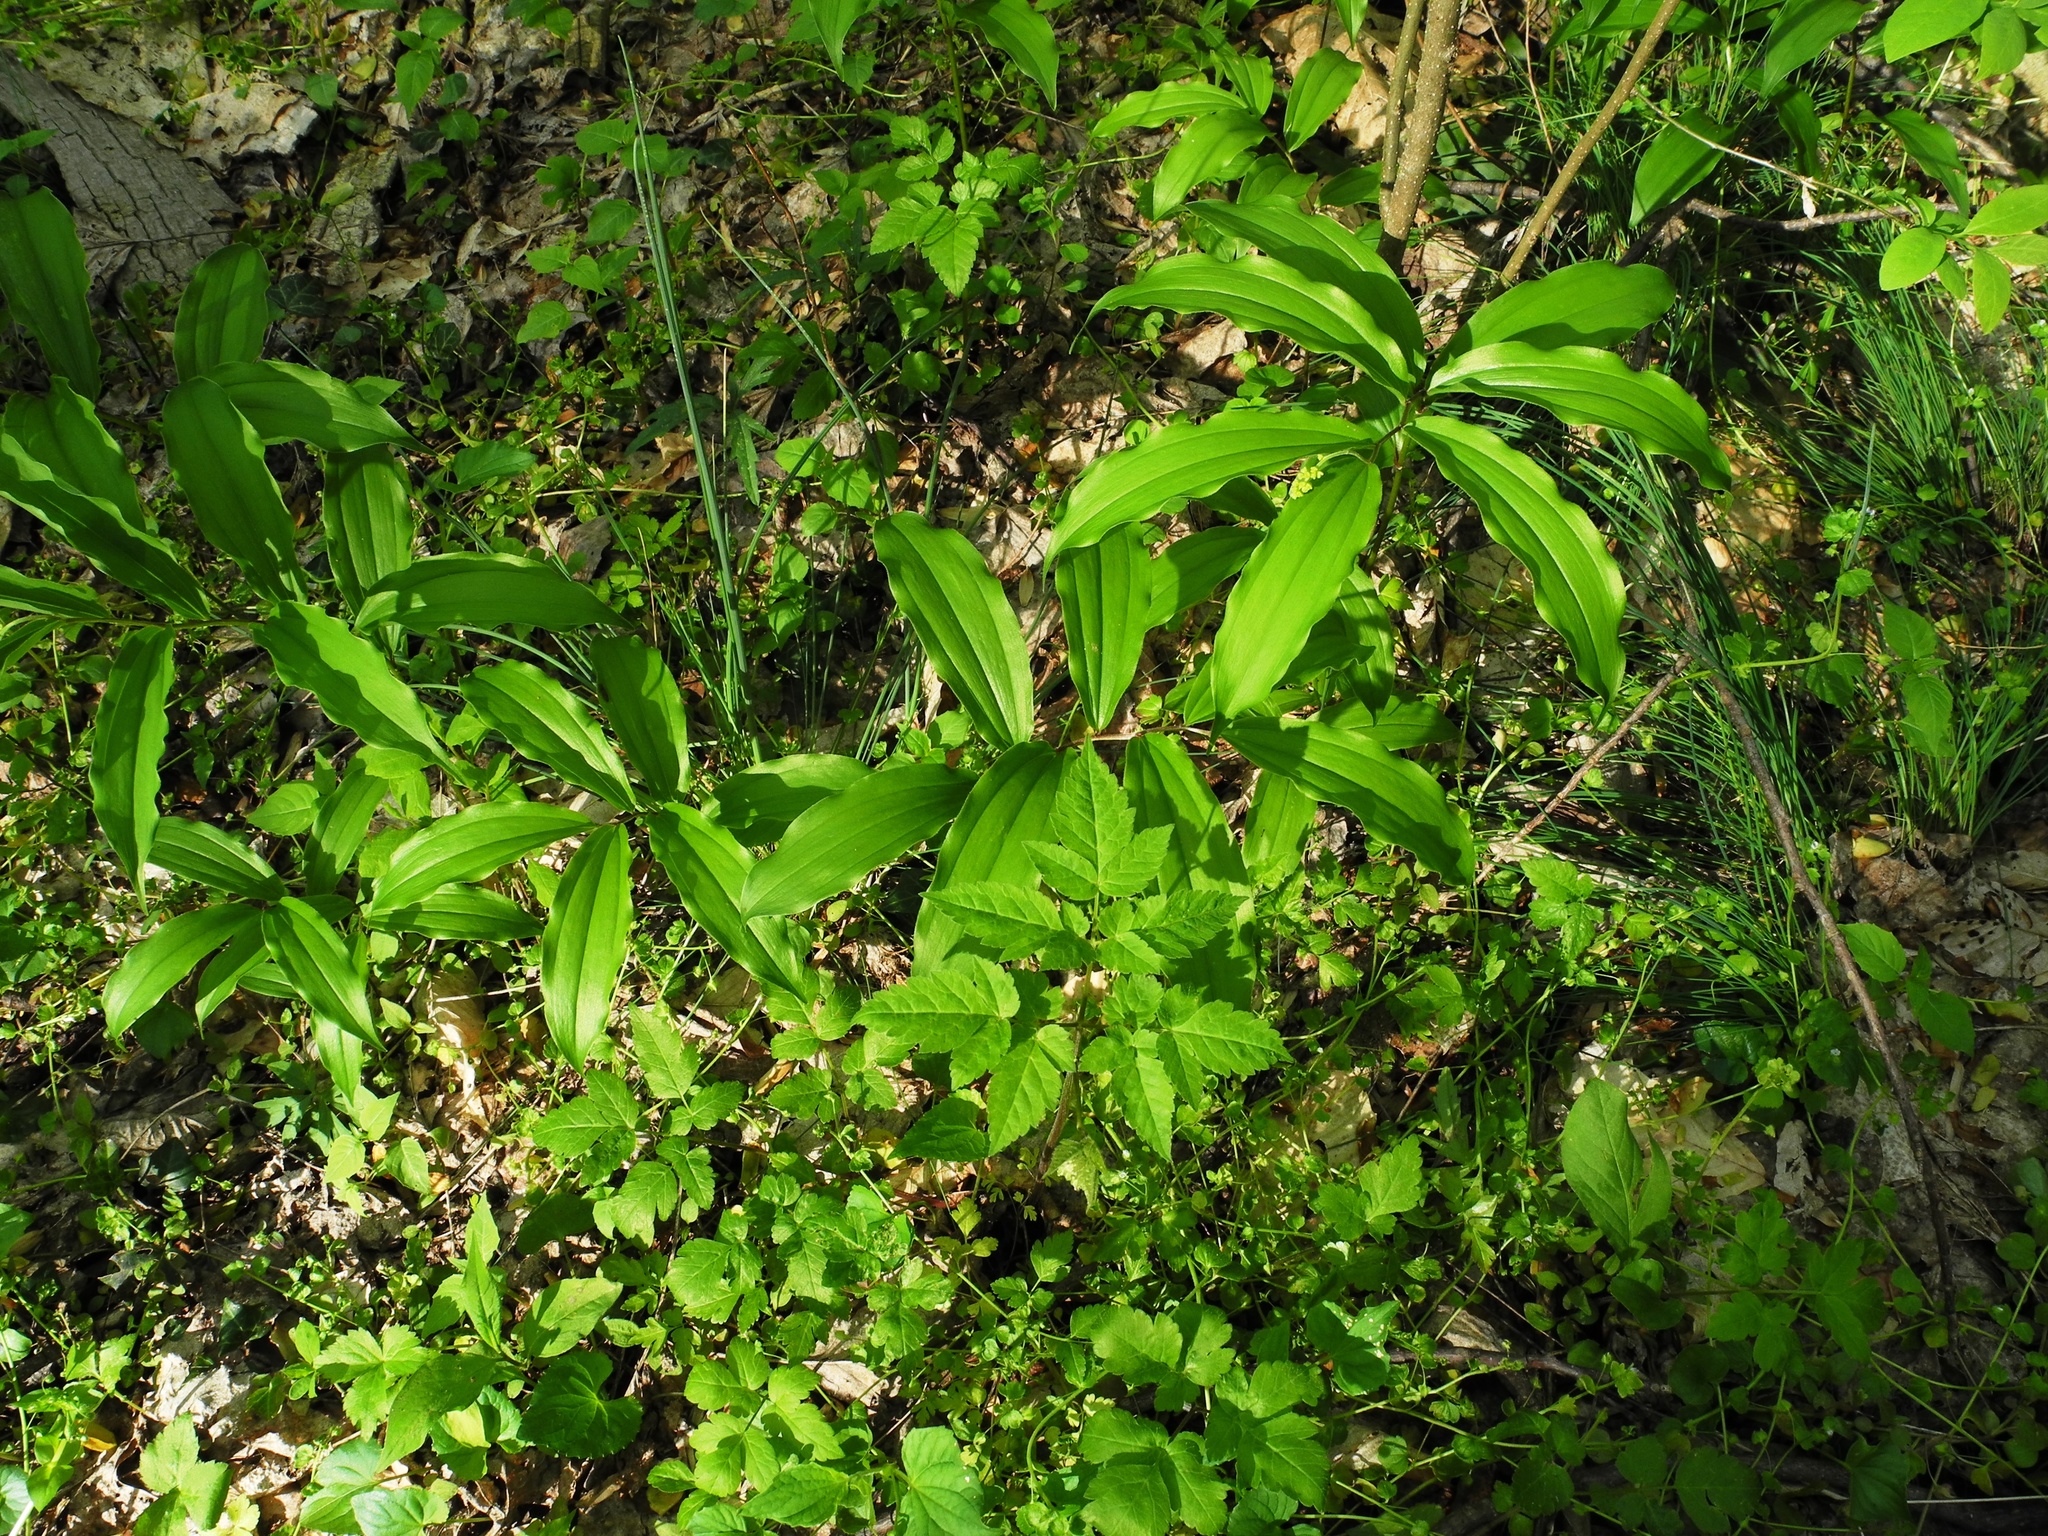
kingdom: Plantae
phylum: Tracheophyta
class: Liliopsida
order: Asparagales
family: Asparagaceae
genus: Maianthemum
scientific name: Maianthemum racemosum
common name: False spikenard
